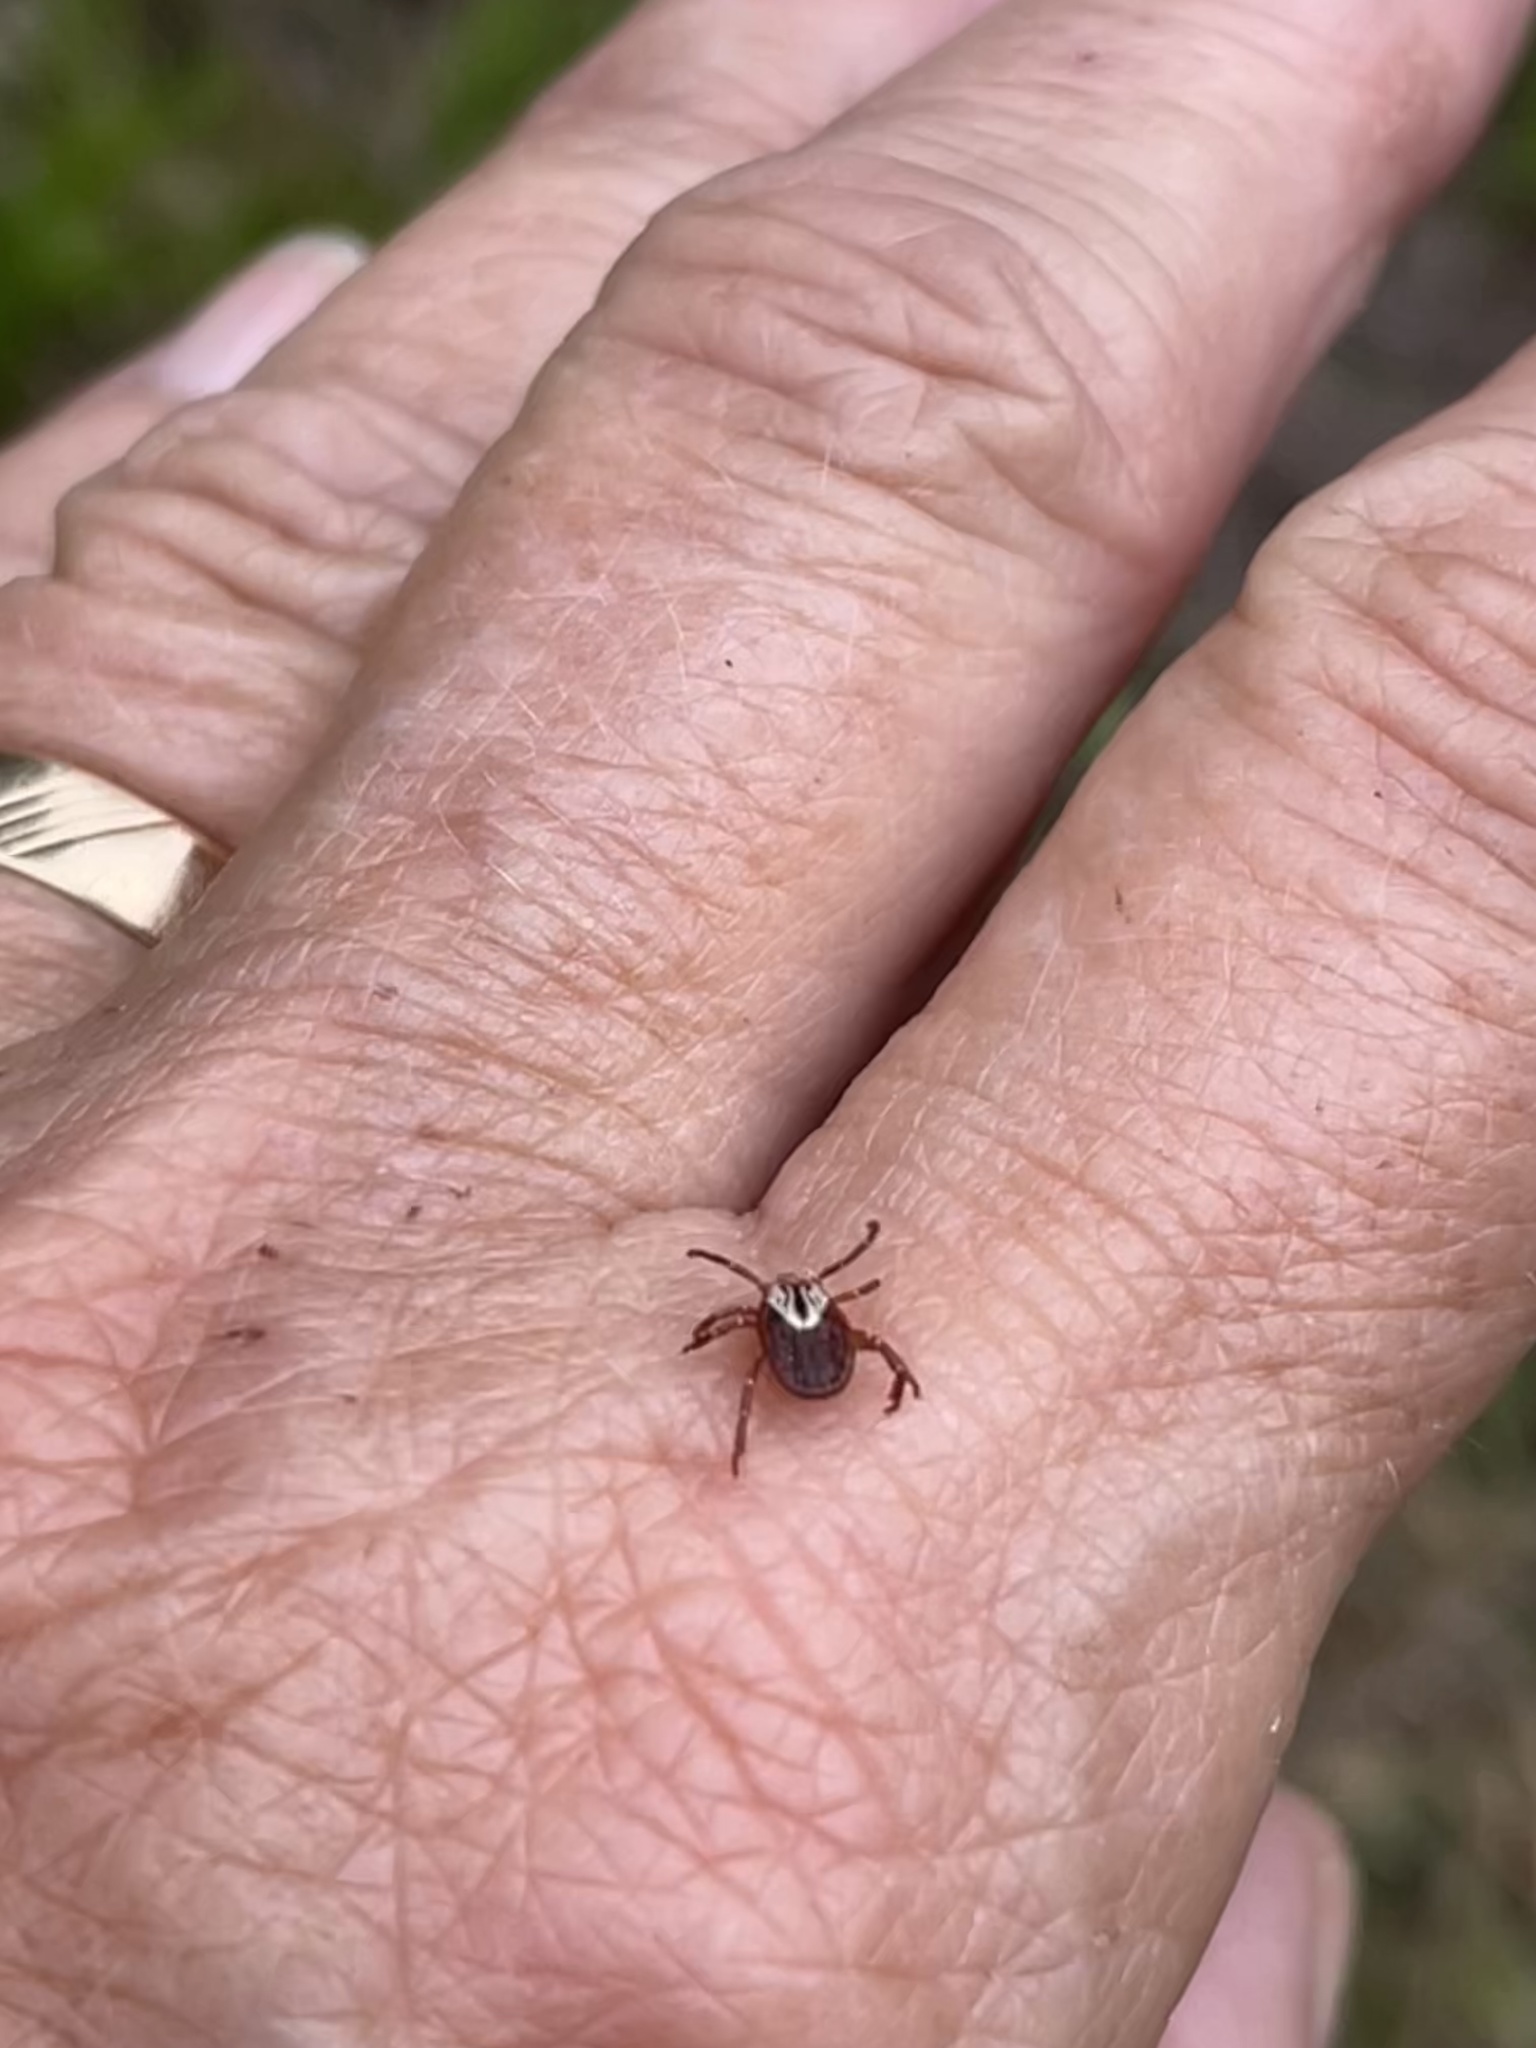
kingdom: Animalia
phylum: Arthropoda
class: Arachnida
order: Ixodida
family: Ixodidae
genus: Amblyomma
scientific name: Amblyomma maculatum
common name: Gulf coast tick
